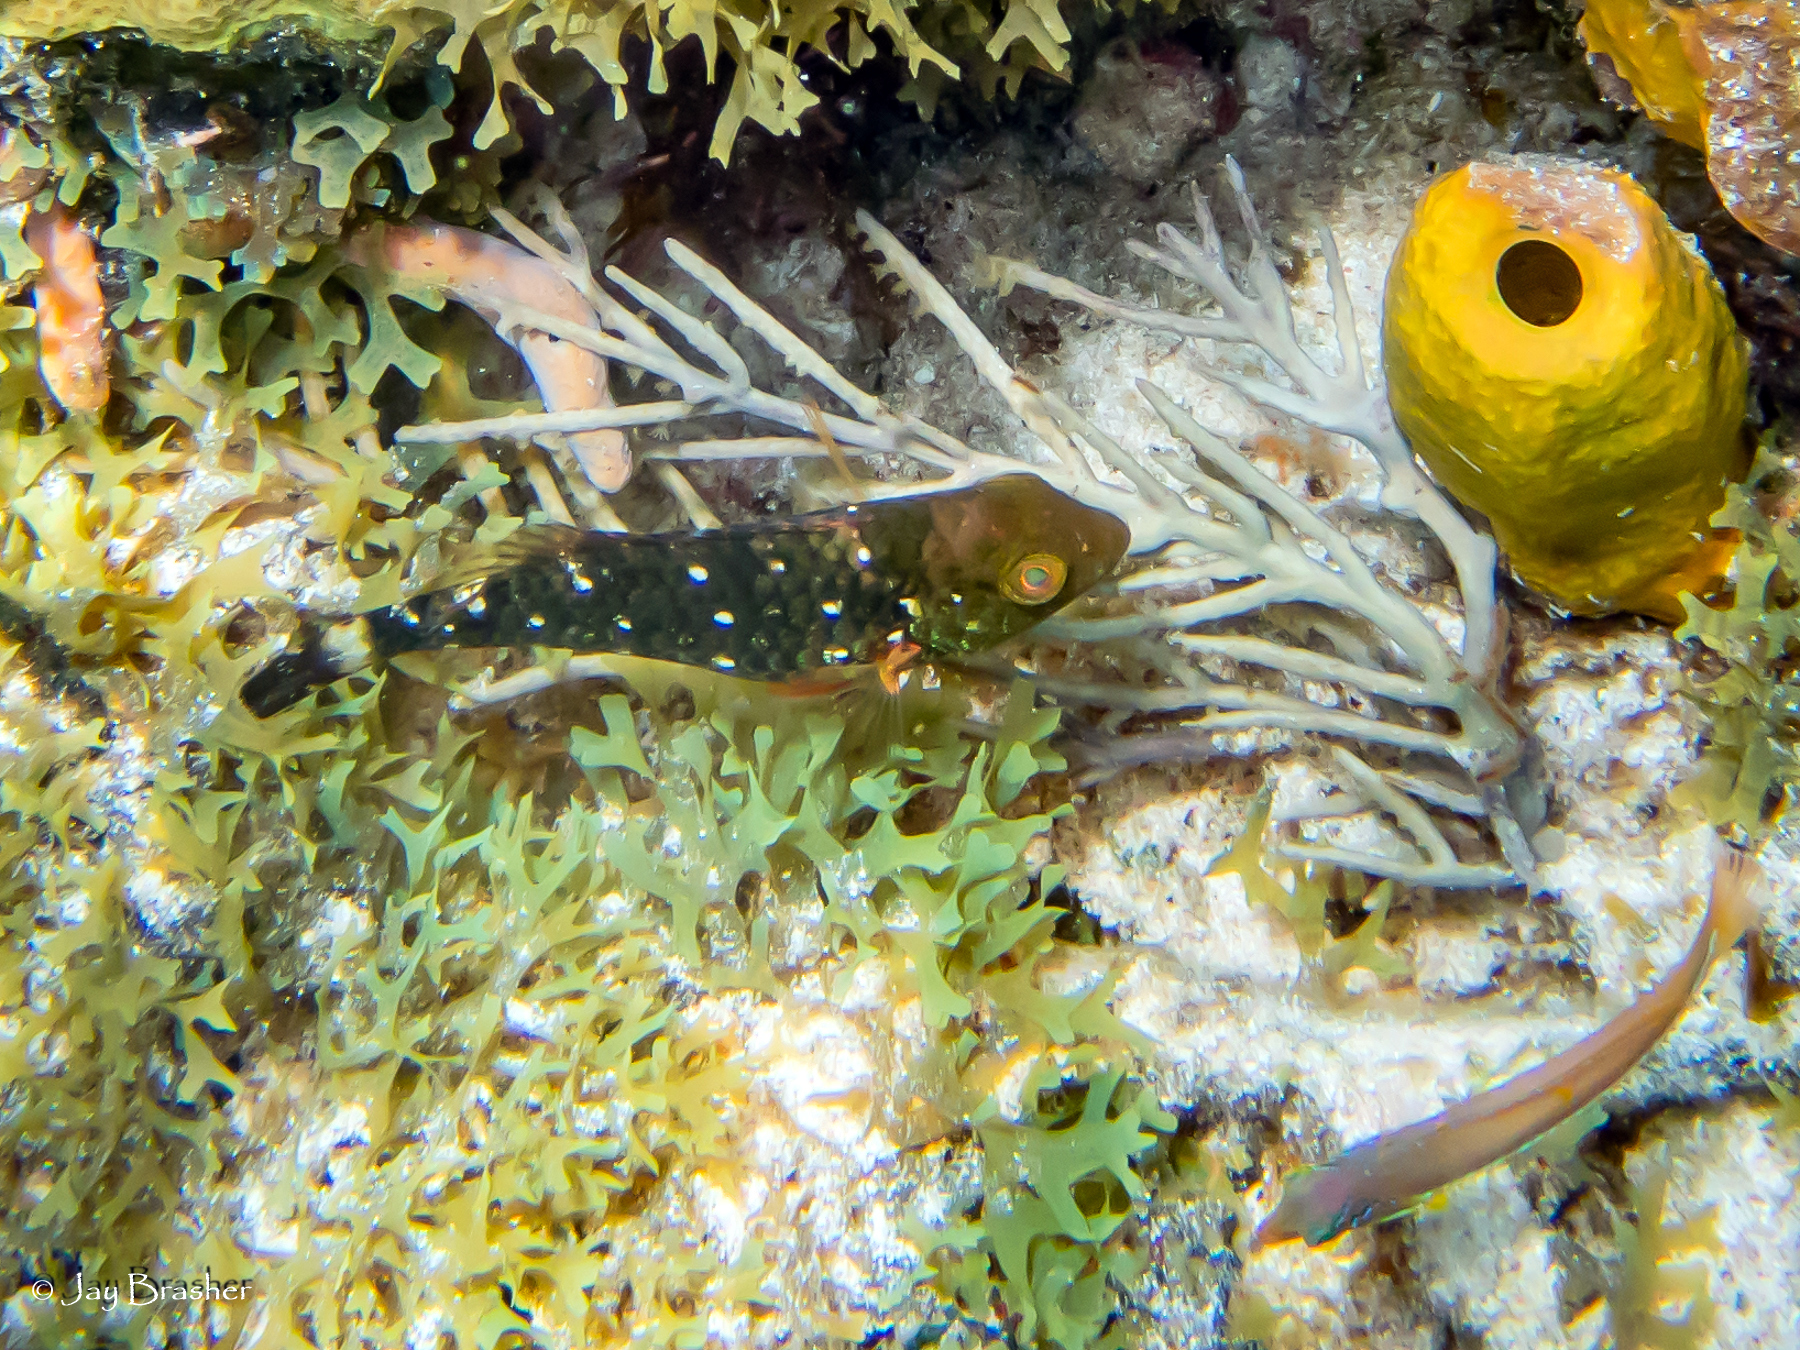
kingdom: Animalia
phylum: Chordata
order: Perciformes
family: Labridae
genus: Halichoeres
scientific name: Halichoeres garnoti
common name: Yellowhead wrasse
